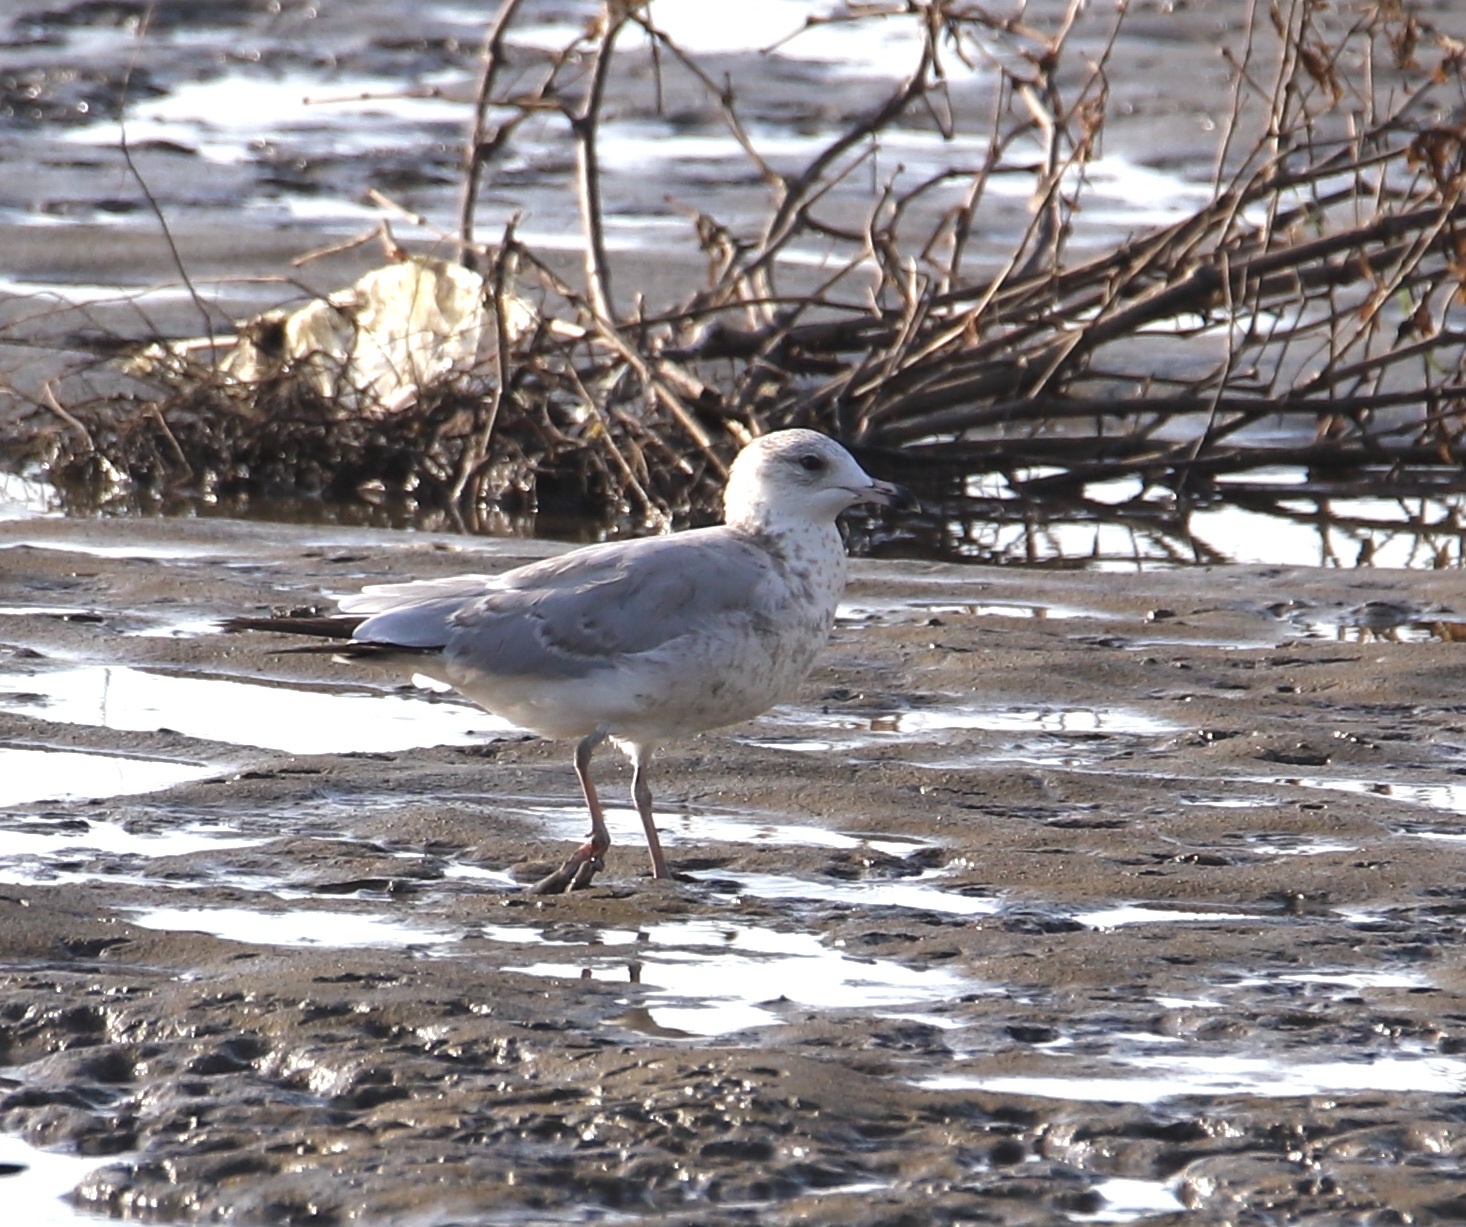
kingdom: Animalia
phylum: Chordata
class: Aves
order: Charadriiformes
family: Laridae
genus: Larus
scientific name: Larus delawarensis
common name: Ring-billed gull
